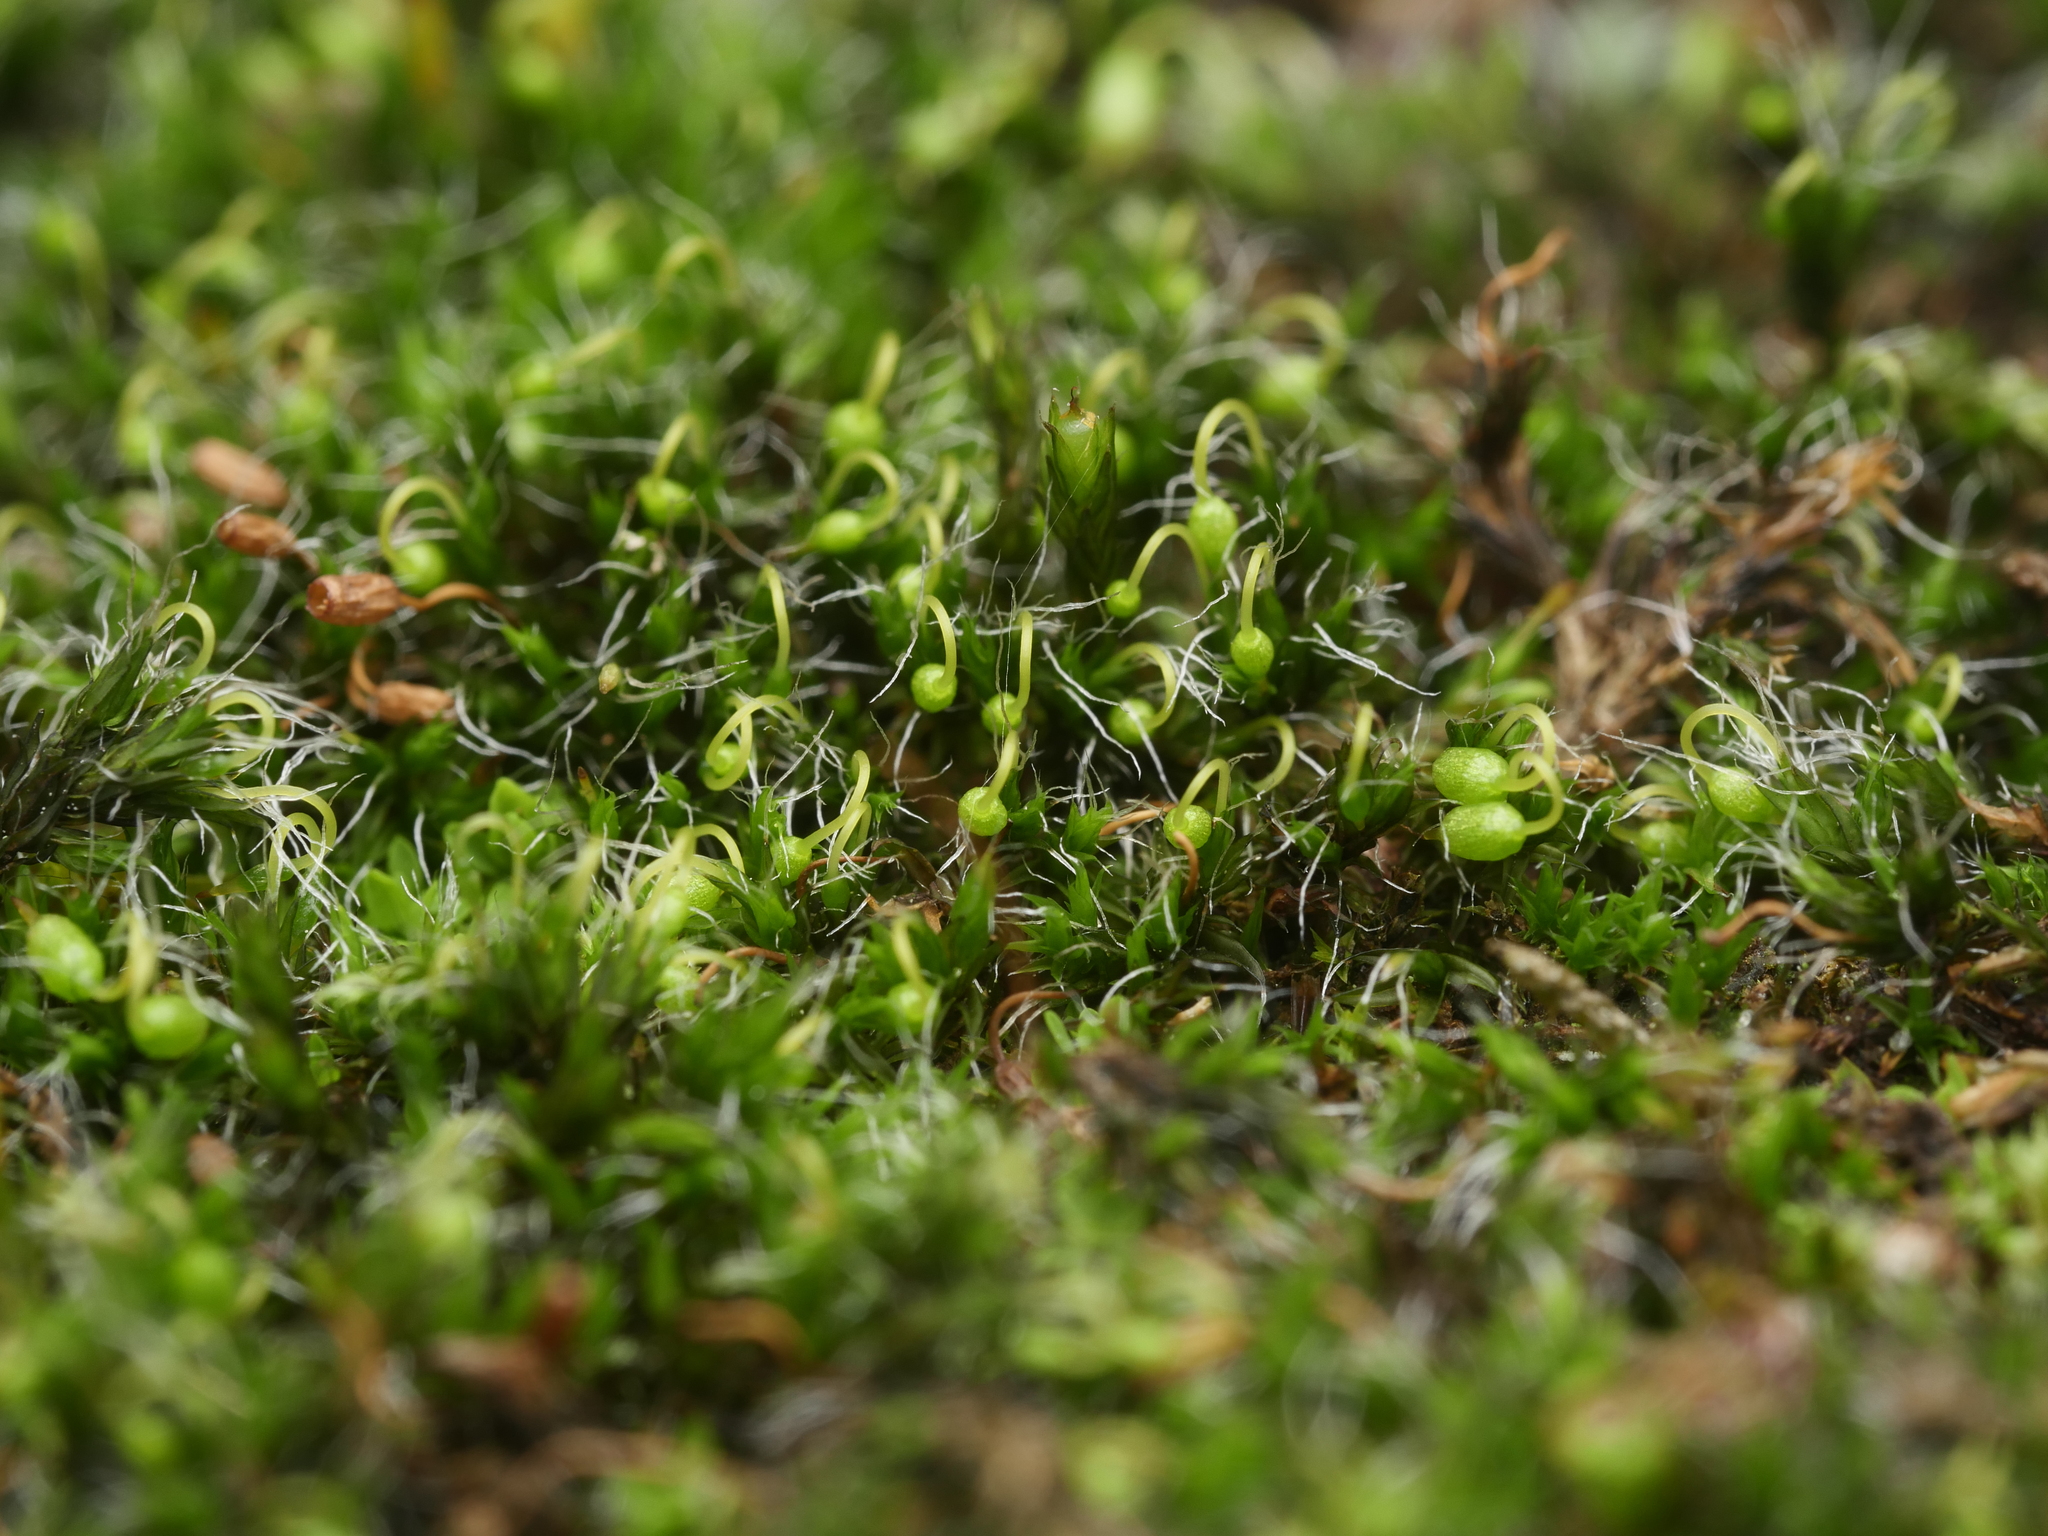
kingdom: Plantae
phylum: Bryophyta
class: Bryopsida
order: Grimmiales
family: Grimmiaceae
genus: Grimmia
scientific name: Grimmia pulvinata
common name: Grey-cushioned grimmia
